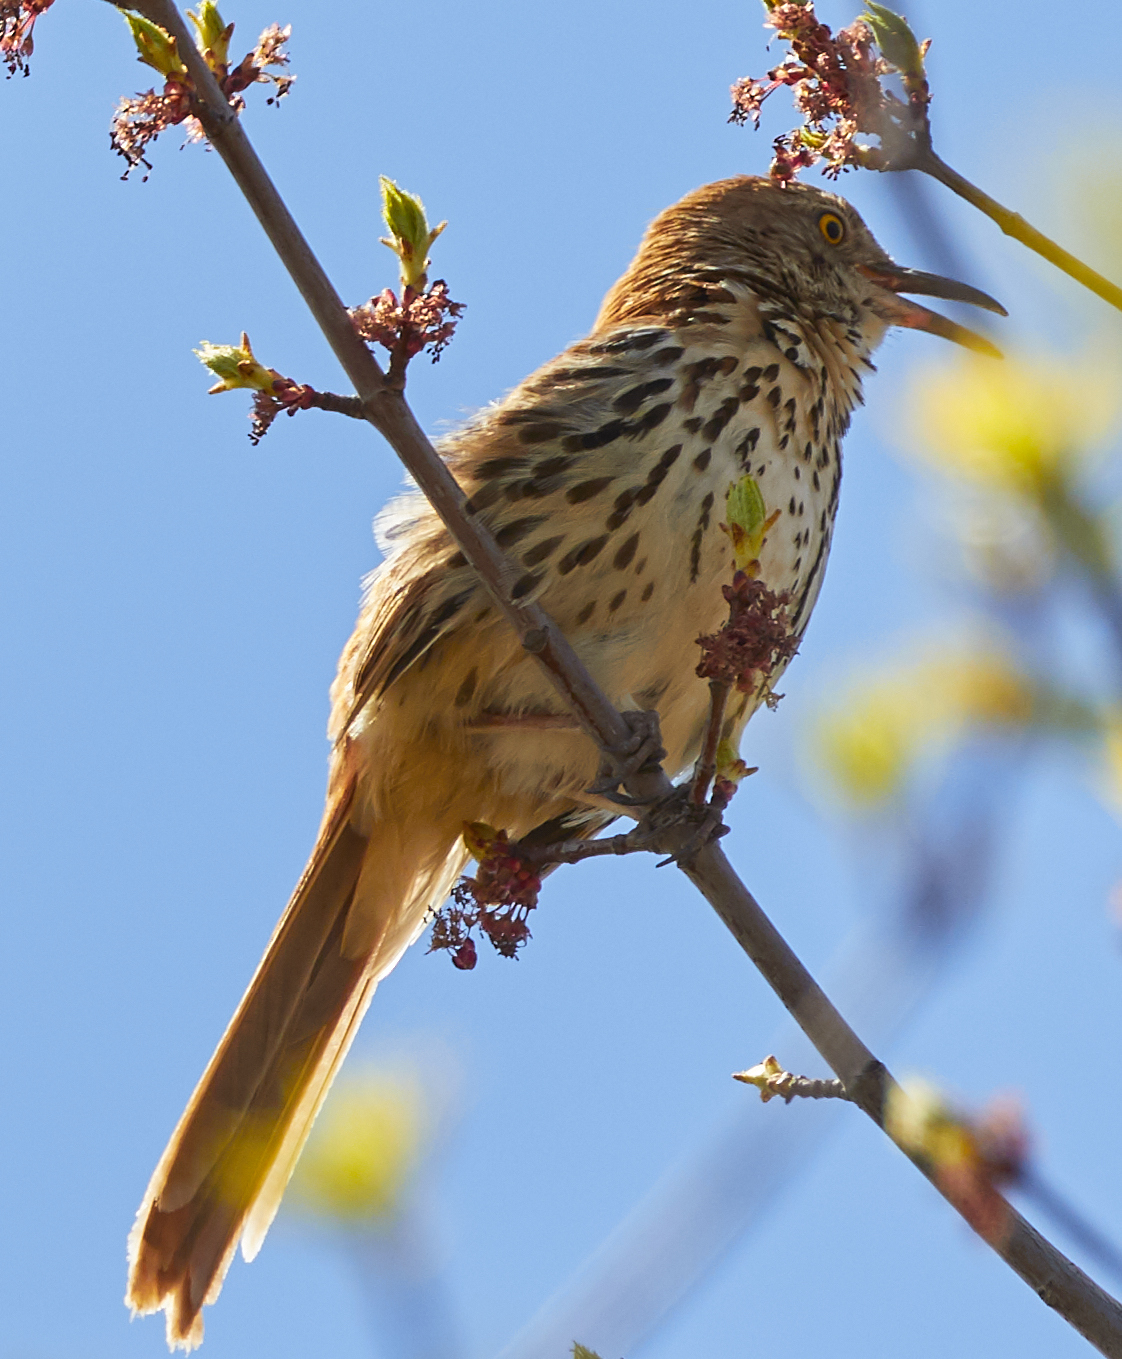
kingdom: Animalia
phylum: Chordata
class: Aves
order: Passeriformes
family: Mimidae
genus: Toxostoma
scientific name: Toxostoma rufum
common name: Brown thrasher
